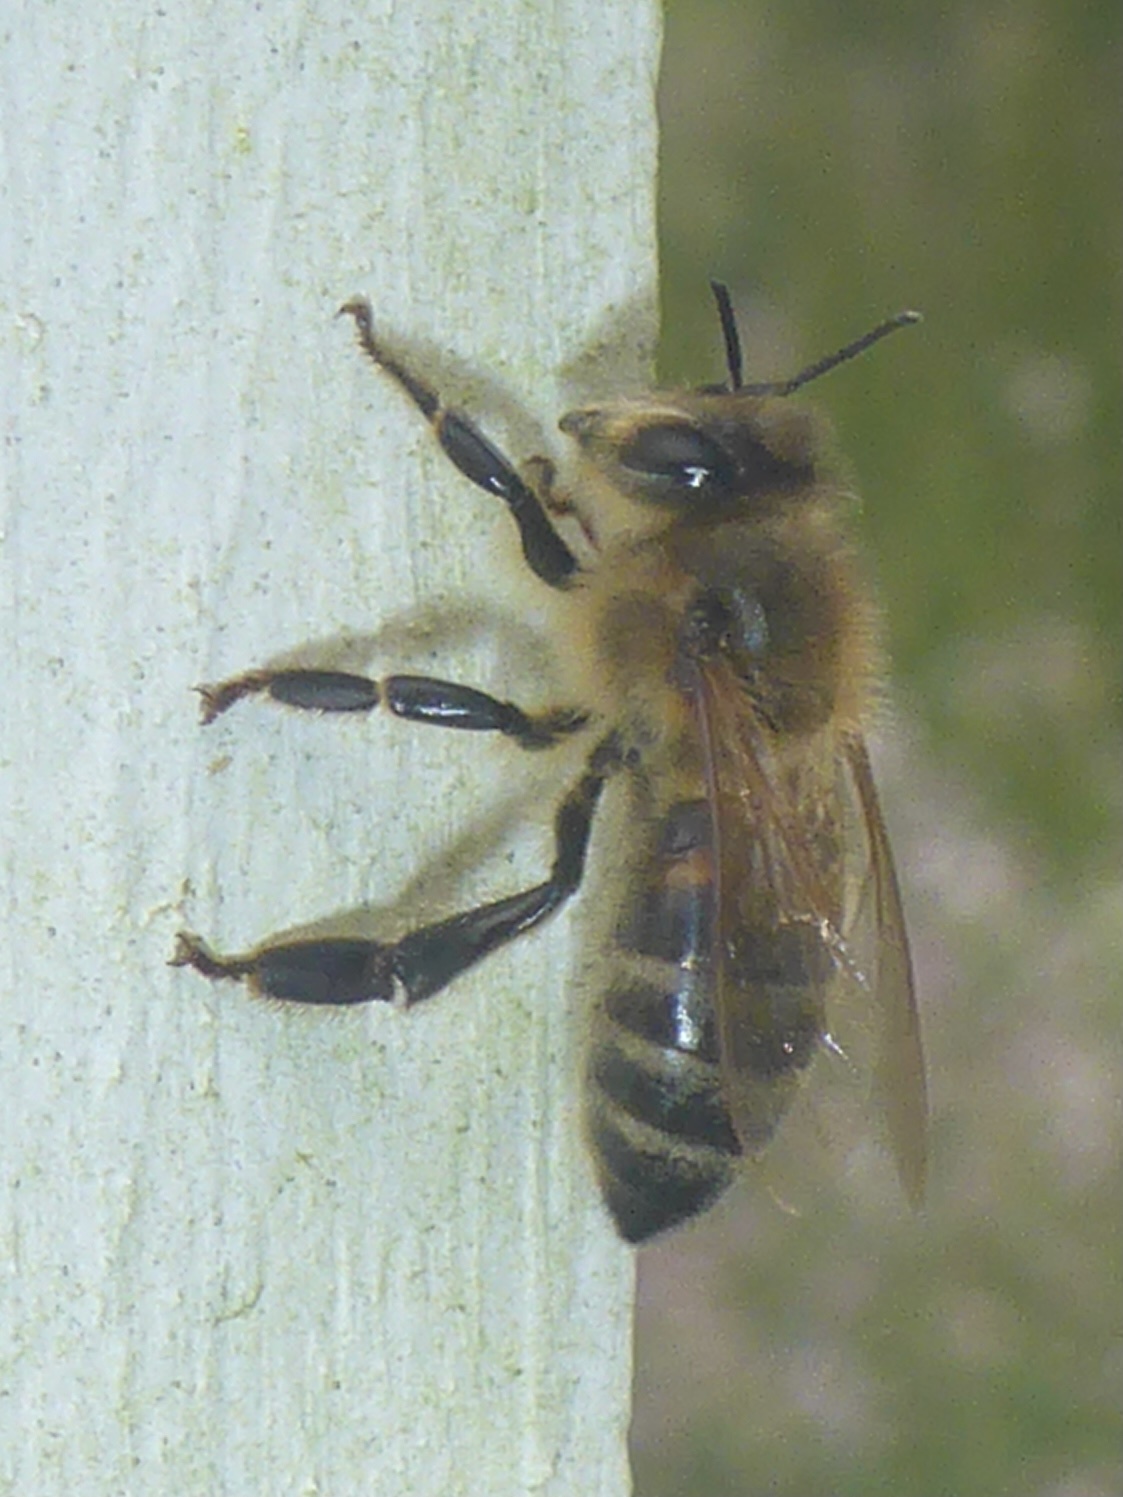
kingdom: Animalia
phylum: Arthropoda
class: Insecta
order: Hymenoptera
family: Apidae
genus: Apis
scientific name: Apis mellifera
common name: Honey bee
